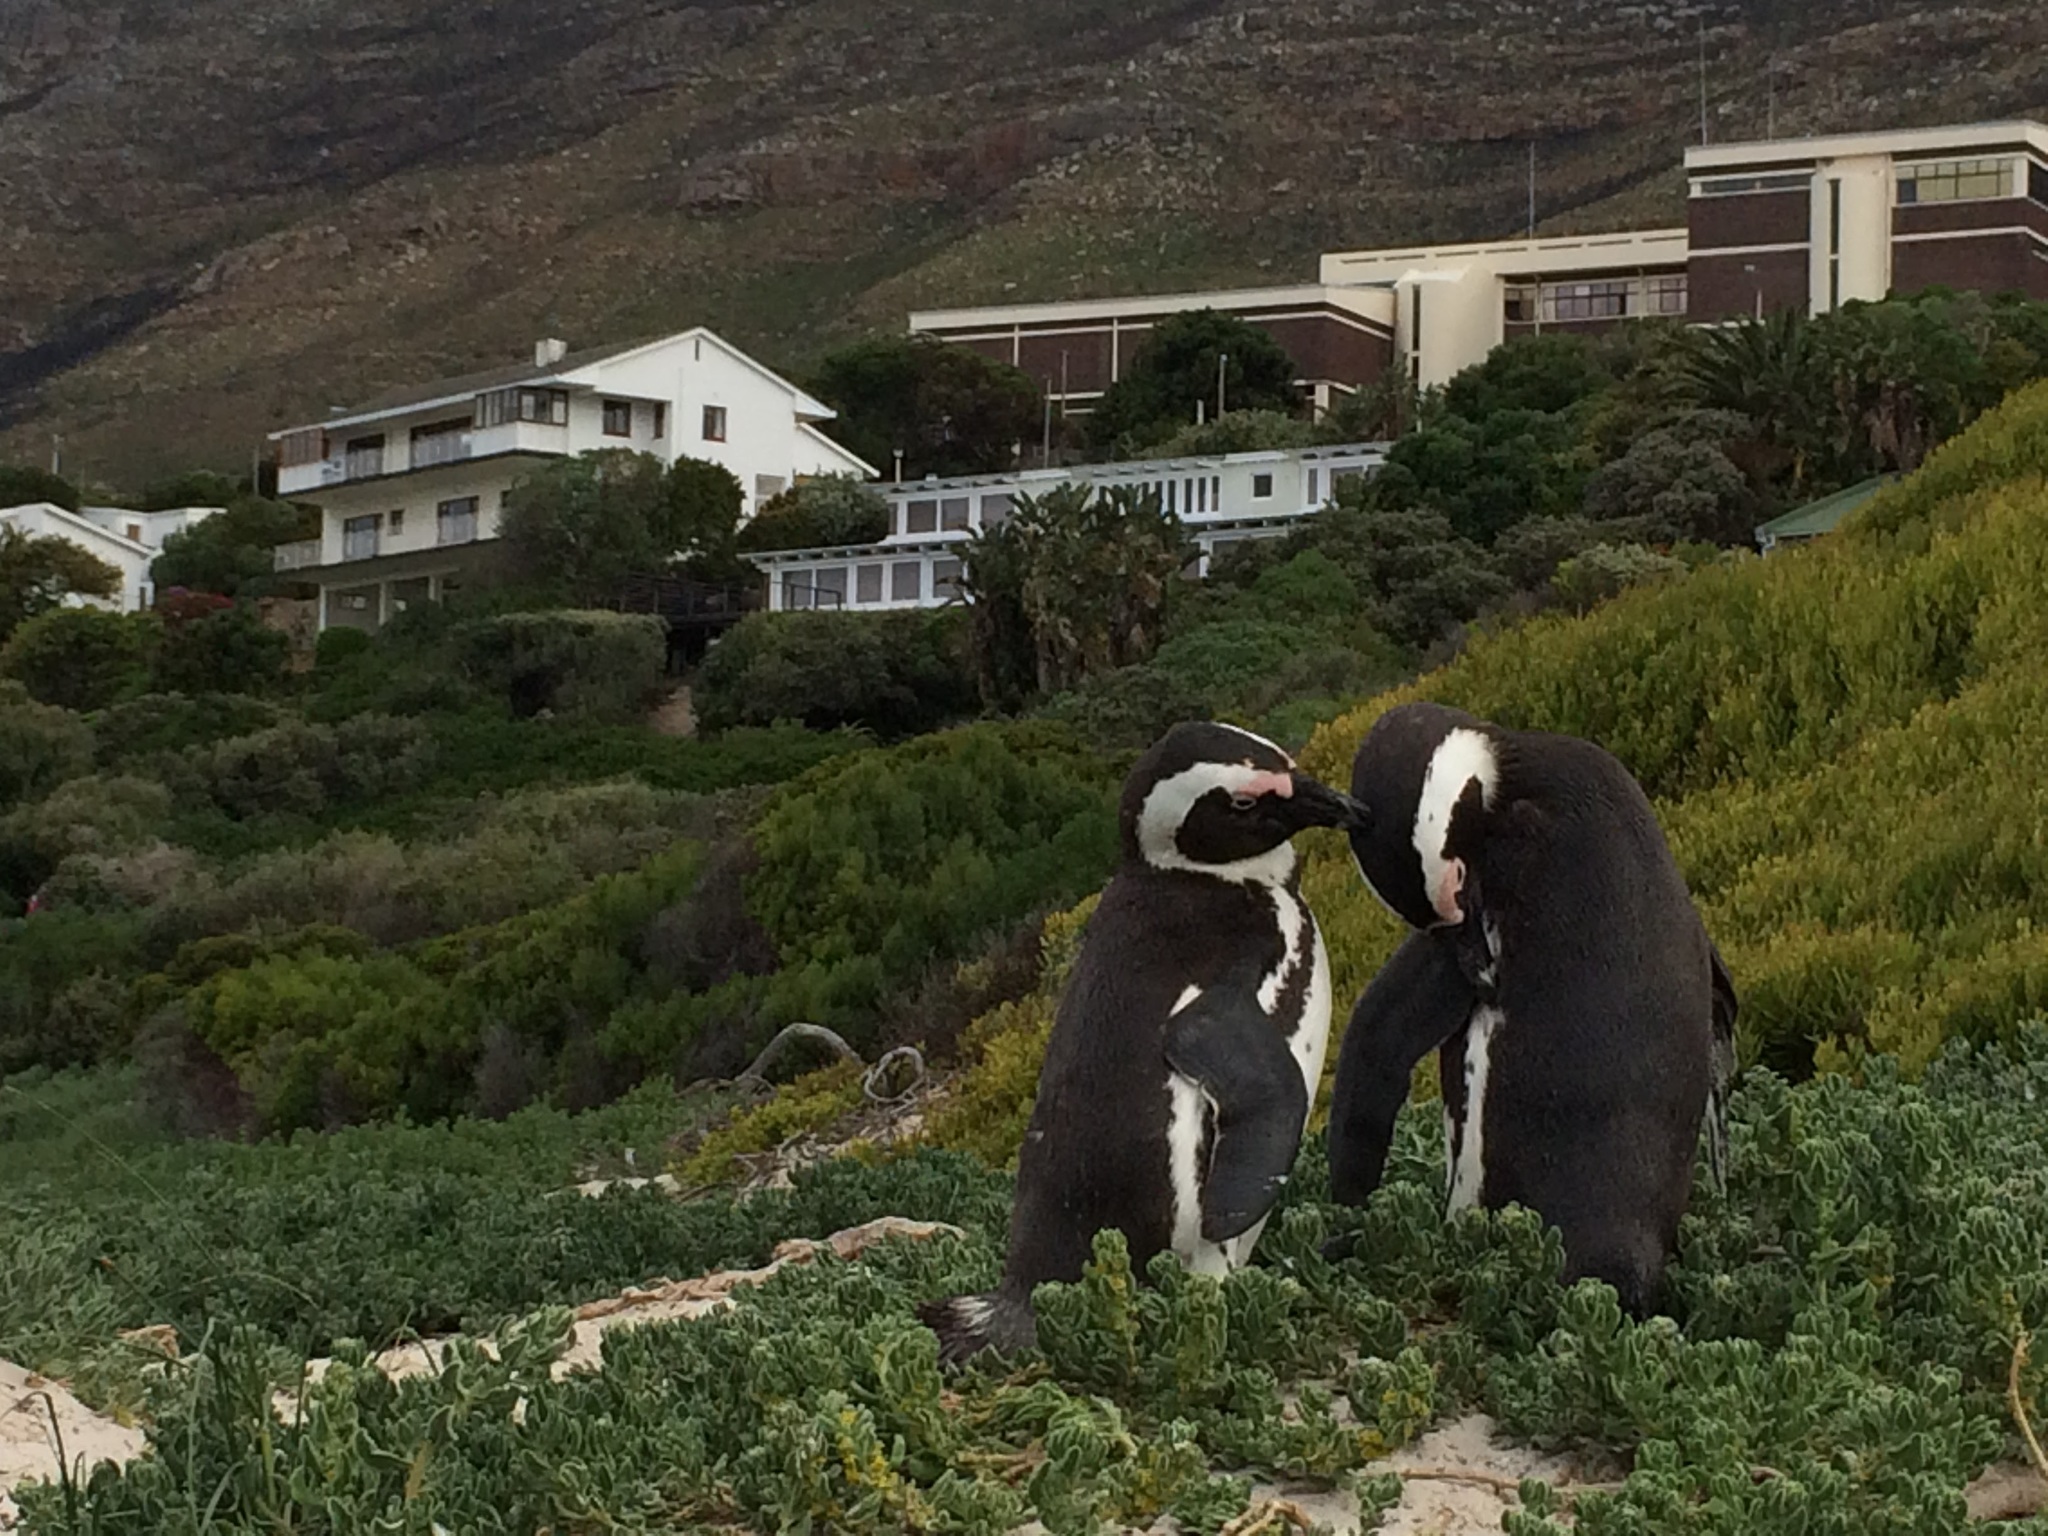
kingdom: Animalia
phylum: Chordata
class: Aves
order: Sphenisciformes
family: Spheniscidae
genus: Spheniscus
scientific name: Spheniscus demersus
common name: African penguin
